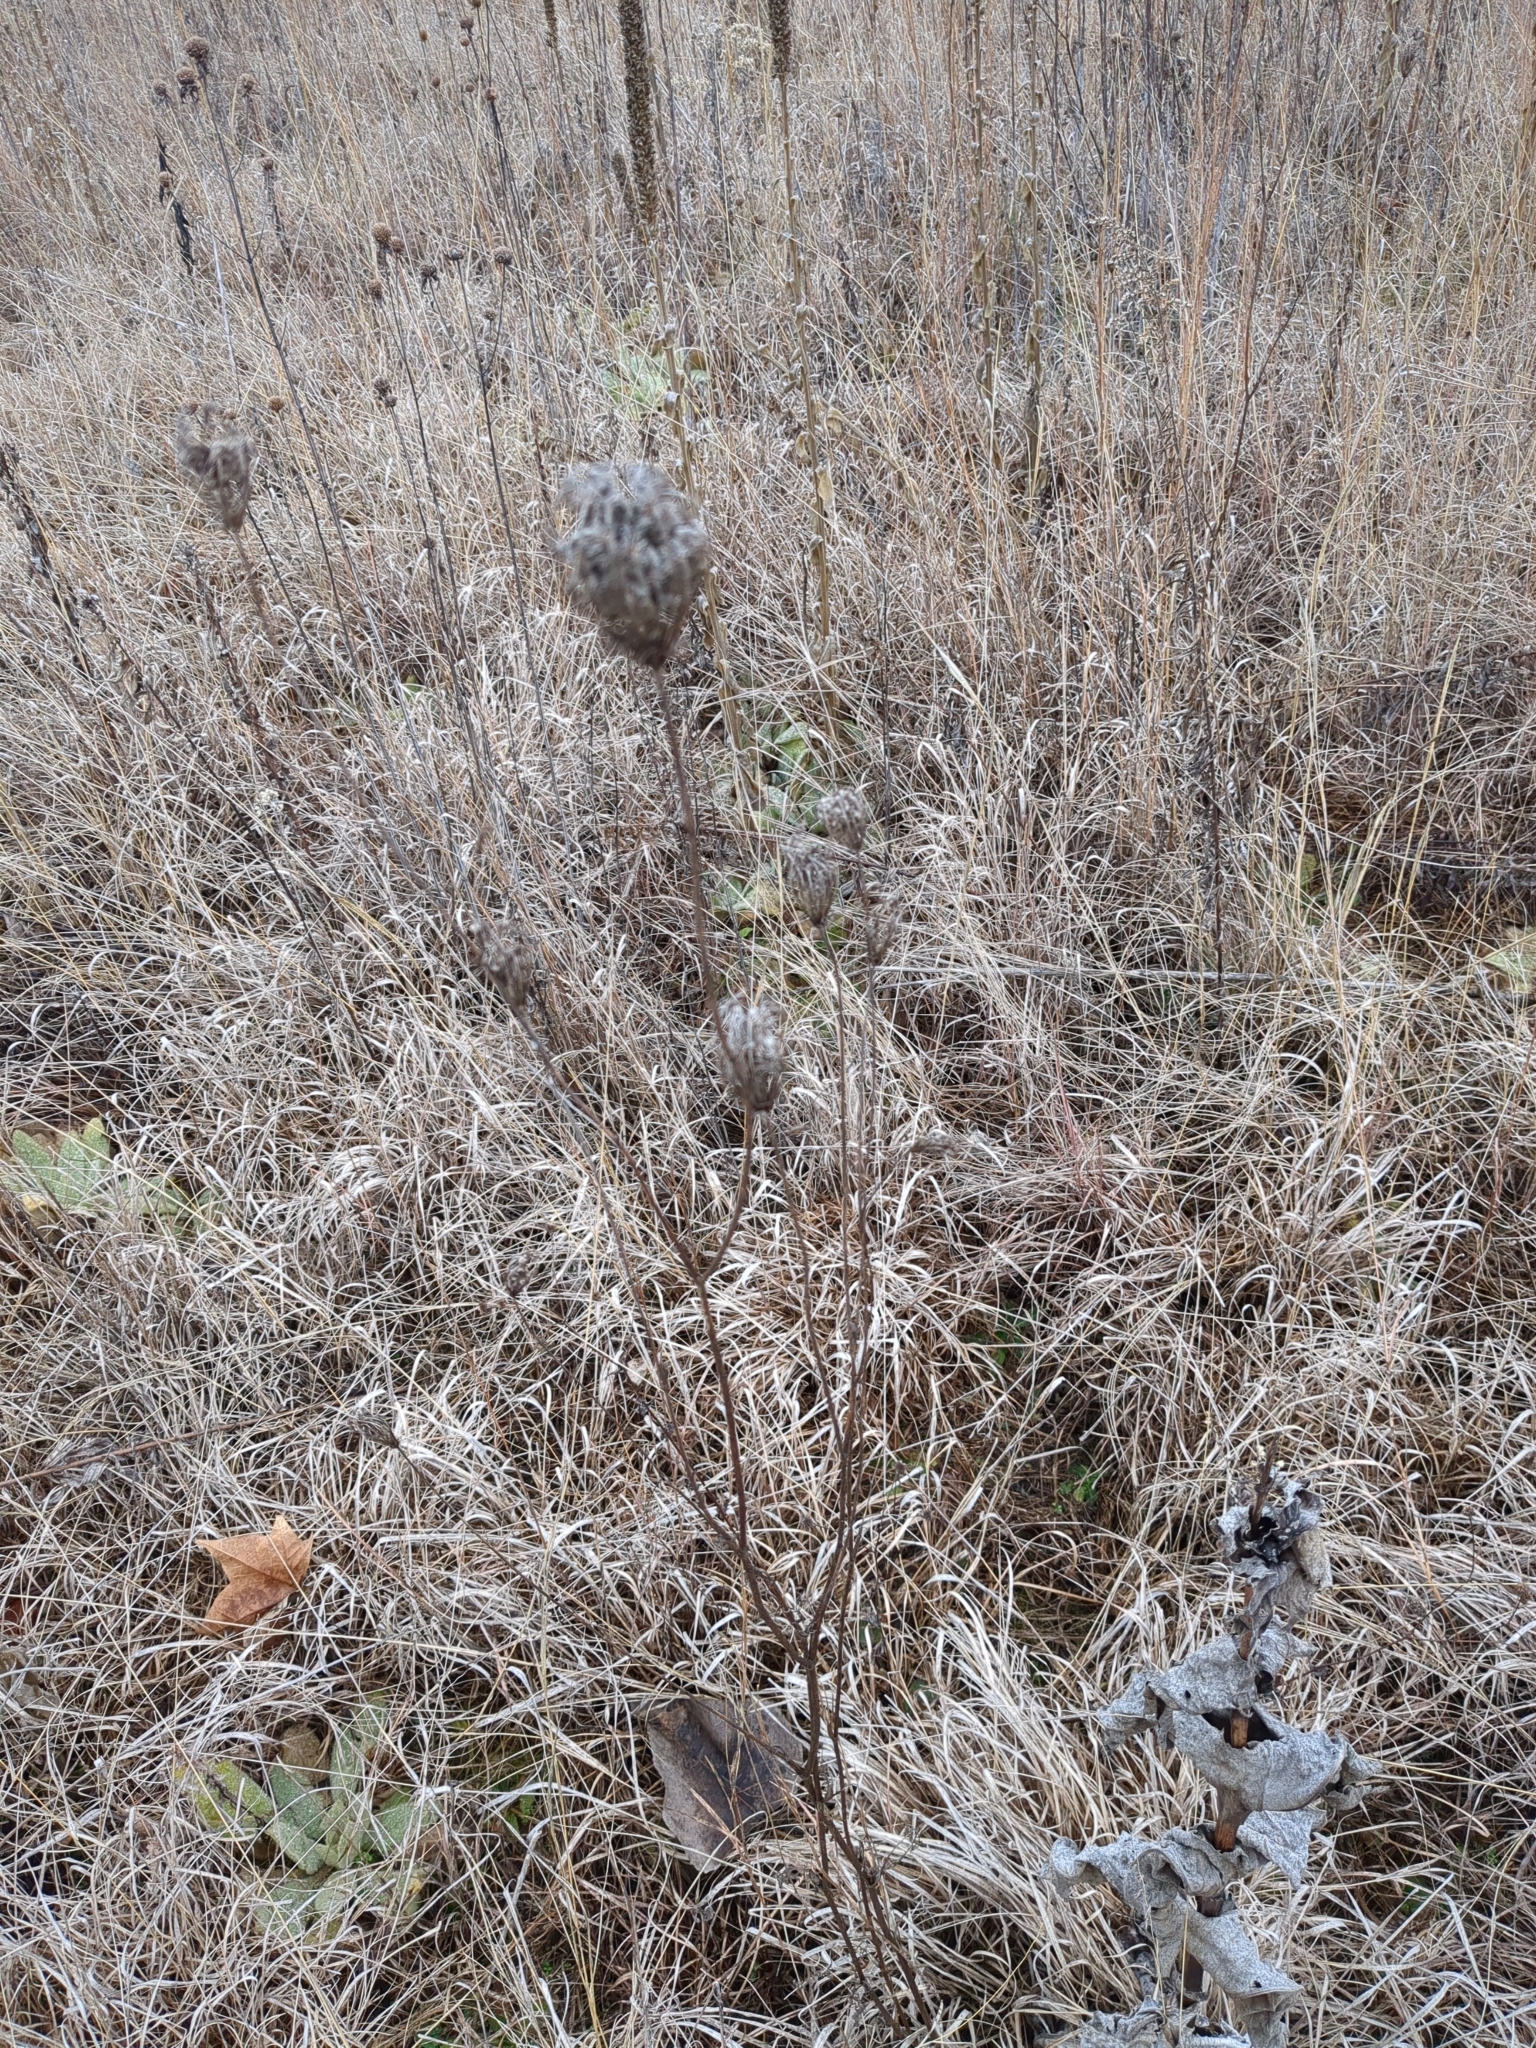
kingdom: Plantae
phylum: Tracheophyta
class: Magnoliopsida
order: Apiales
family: Apiaceae
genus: Daucus
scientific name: Daucus carota
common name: Wild carrot
